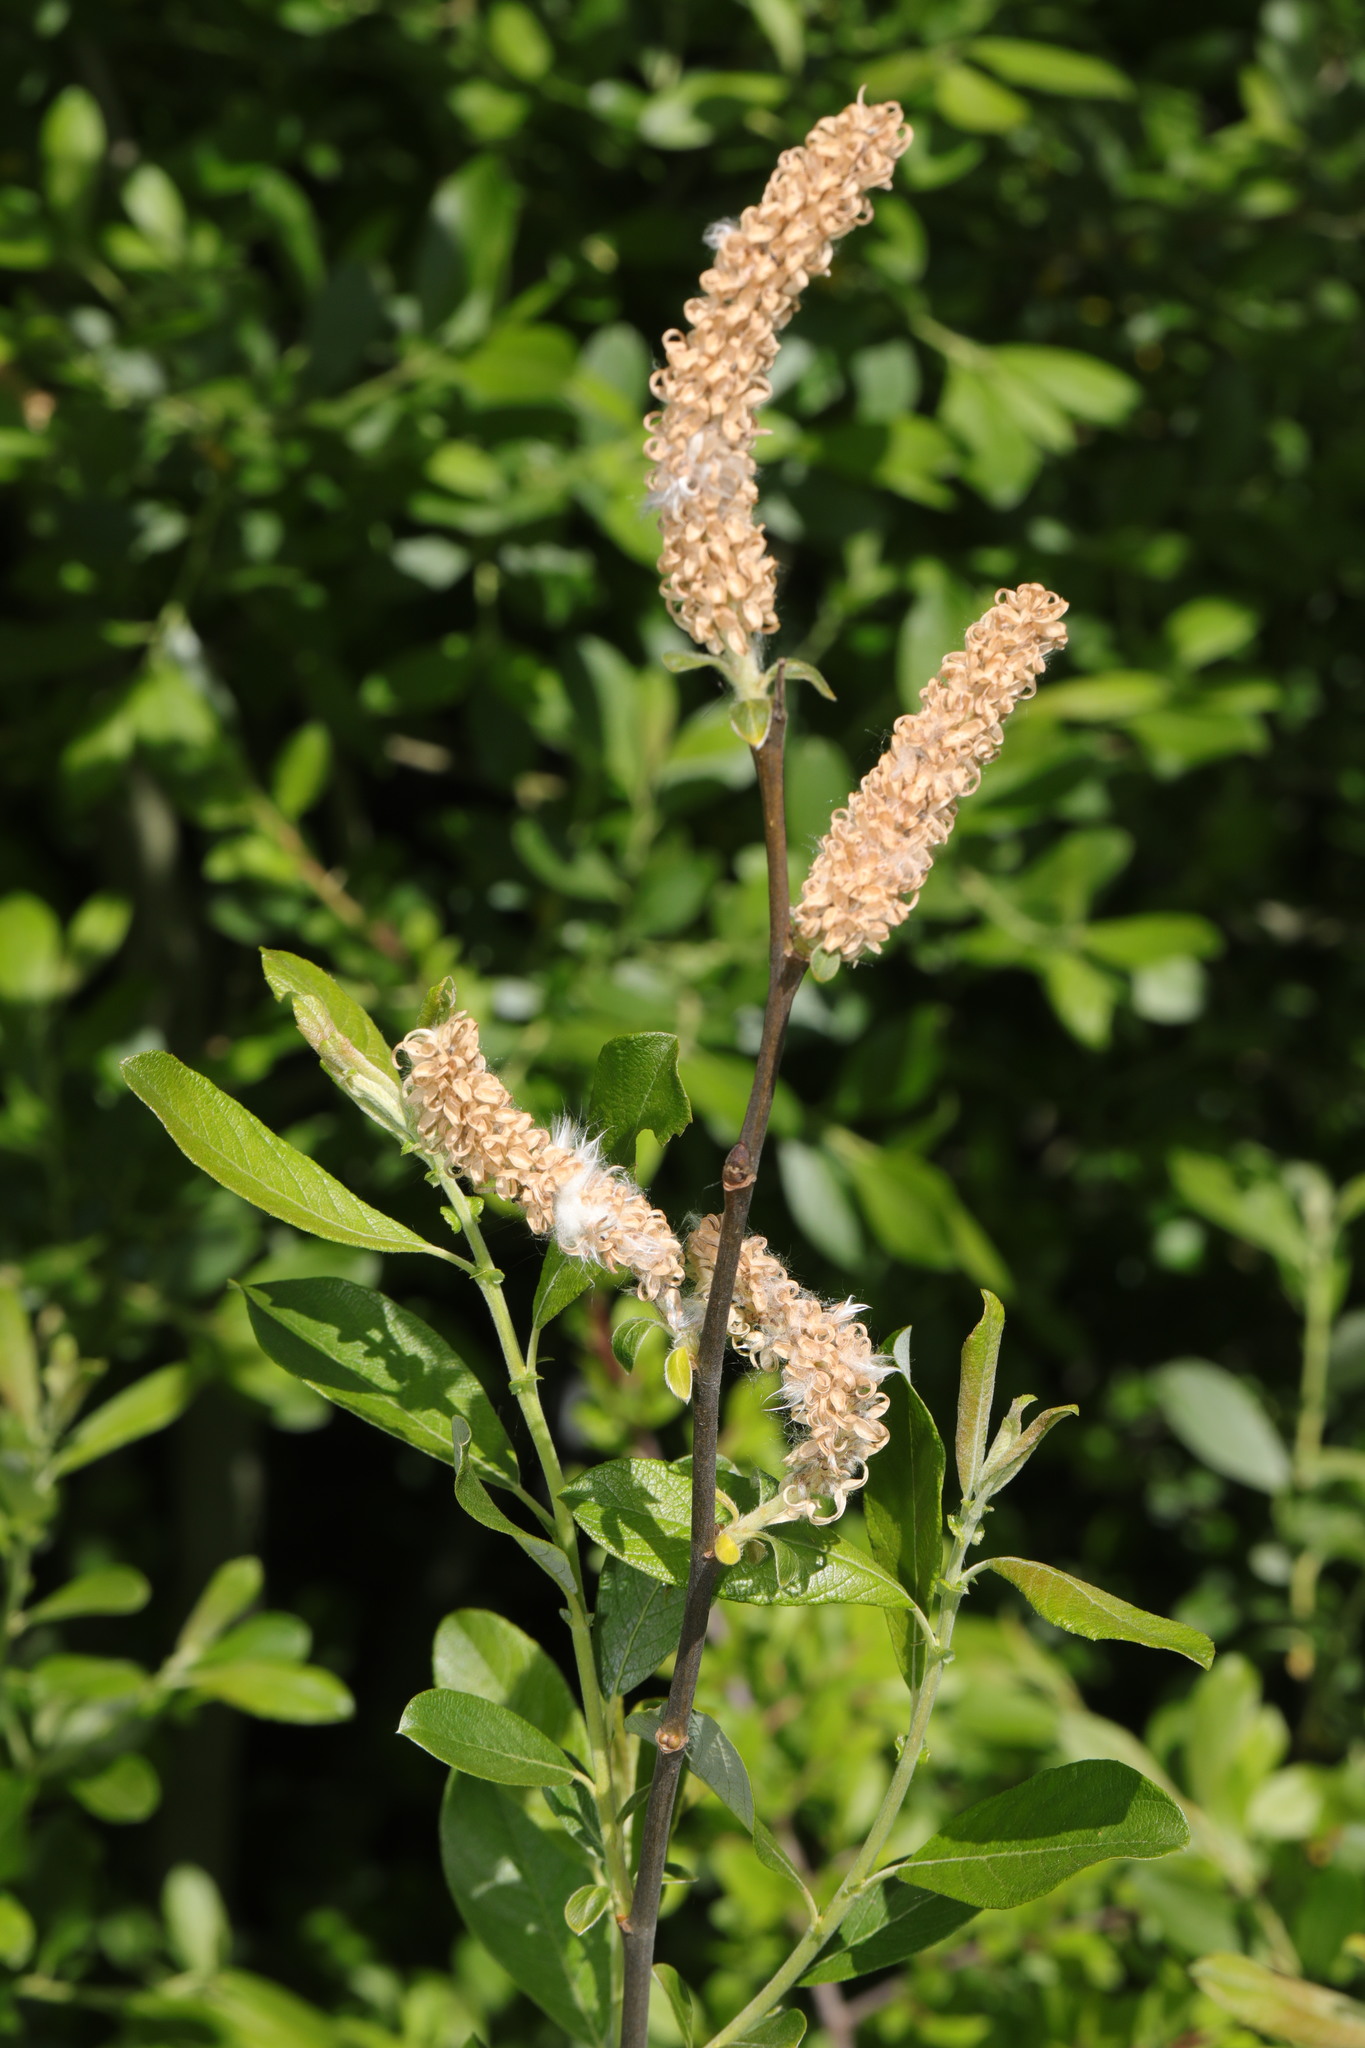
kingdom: Plantae
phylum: Tracheophyta
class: Magnoliopsida
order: Malpighiales
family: Salicaceae
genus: Salix
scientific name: Salix cinerea
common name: Common sallow
